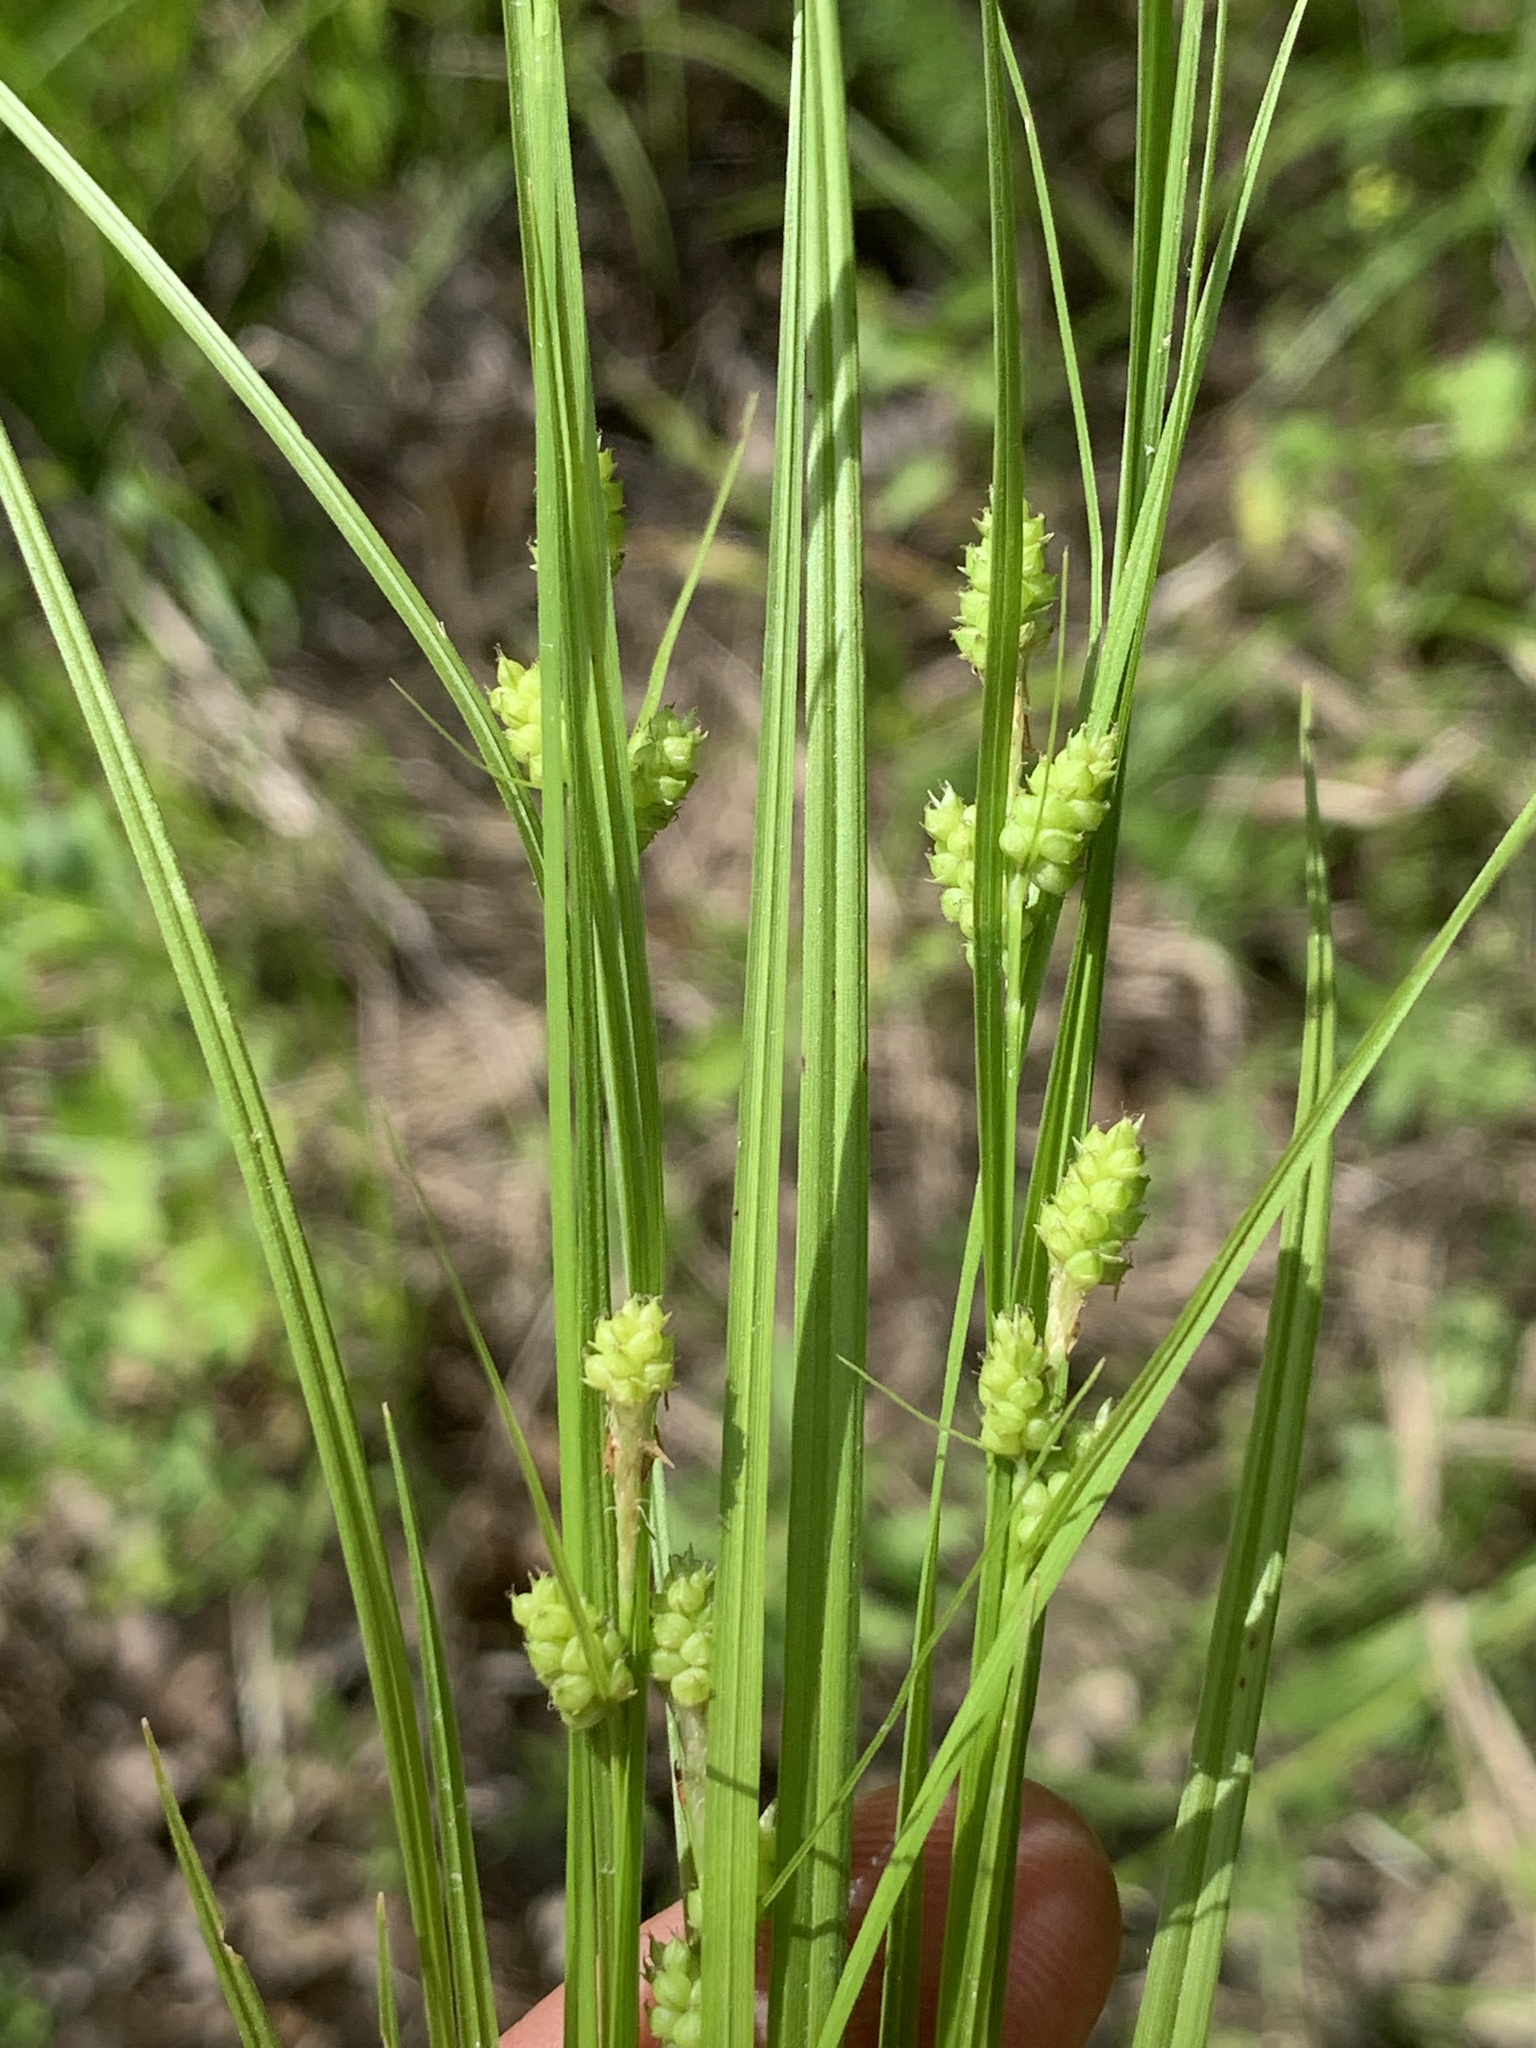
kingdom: Plantae
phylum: Tracheophyta
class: Liliopsida
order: Poales
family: Cyperaceae
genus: Carex
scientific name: Carex caroliniana
